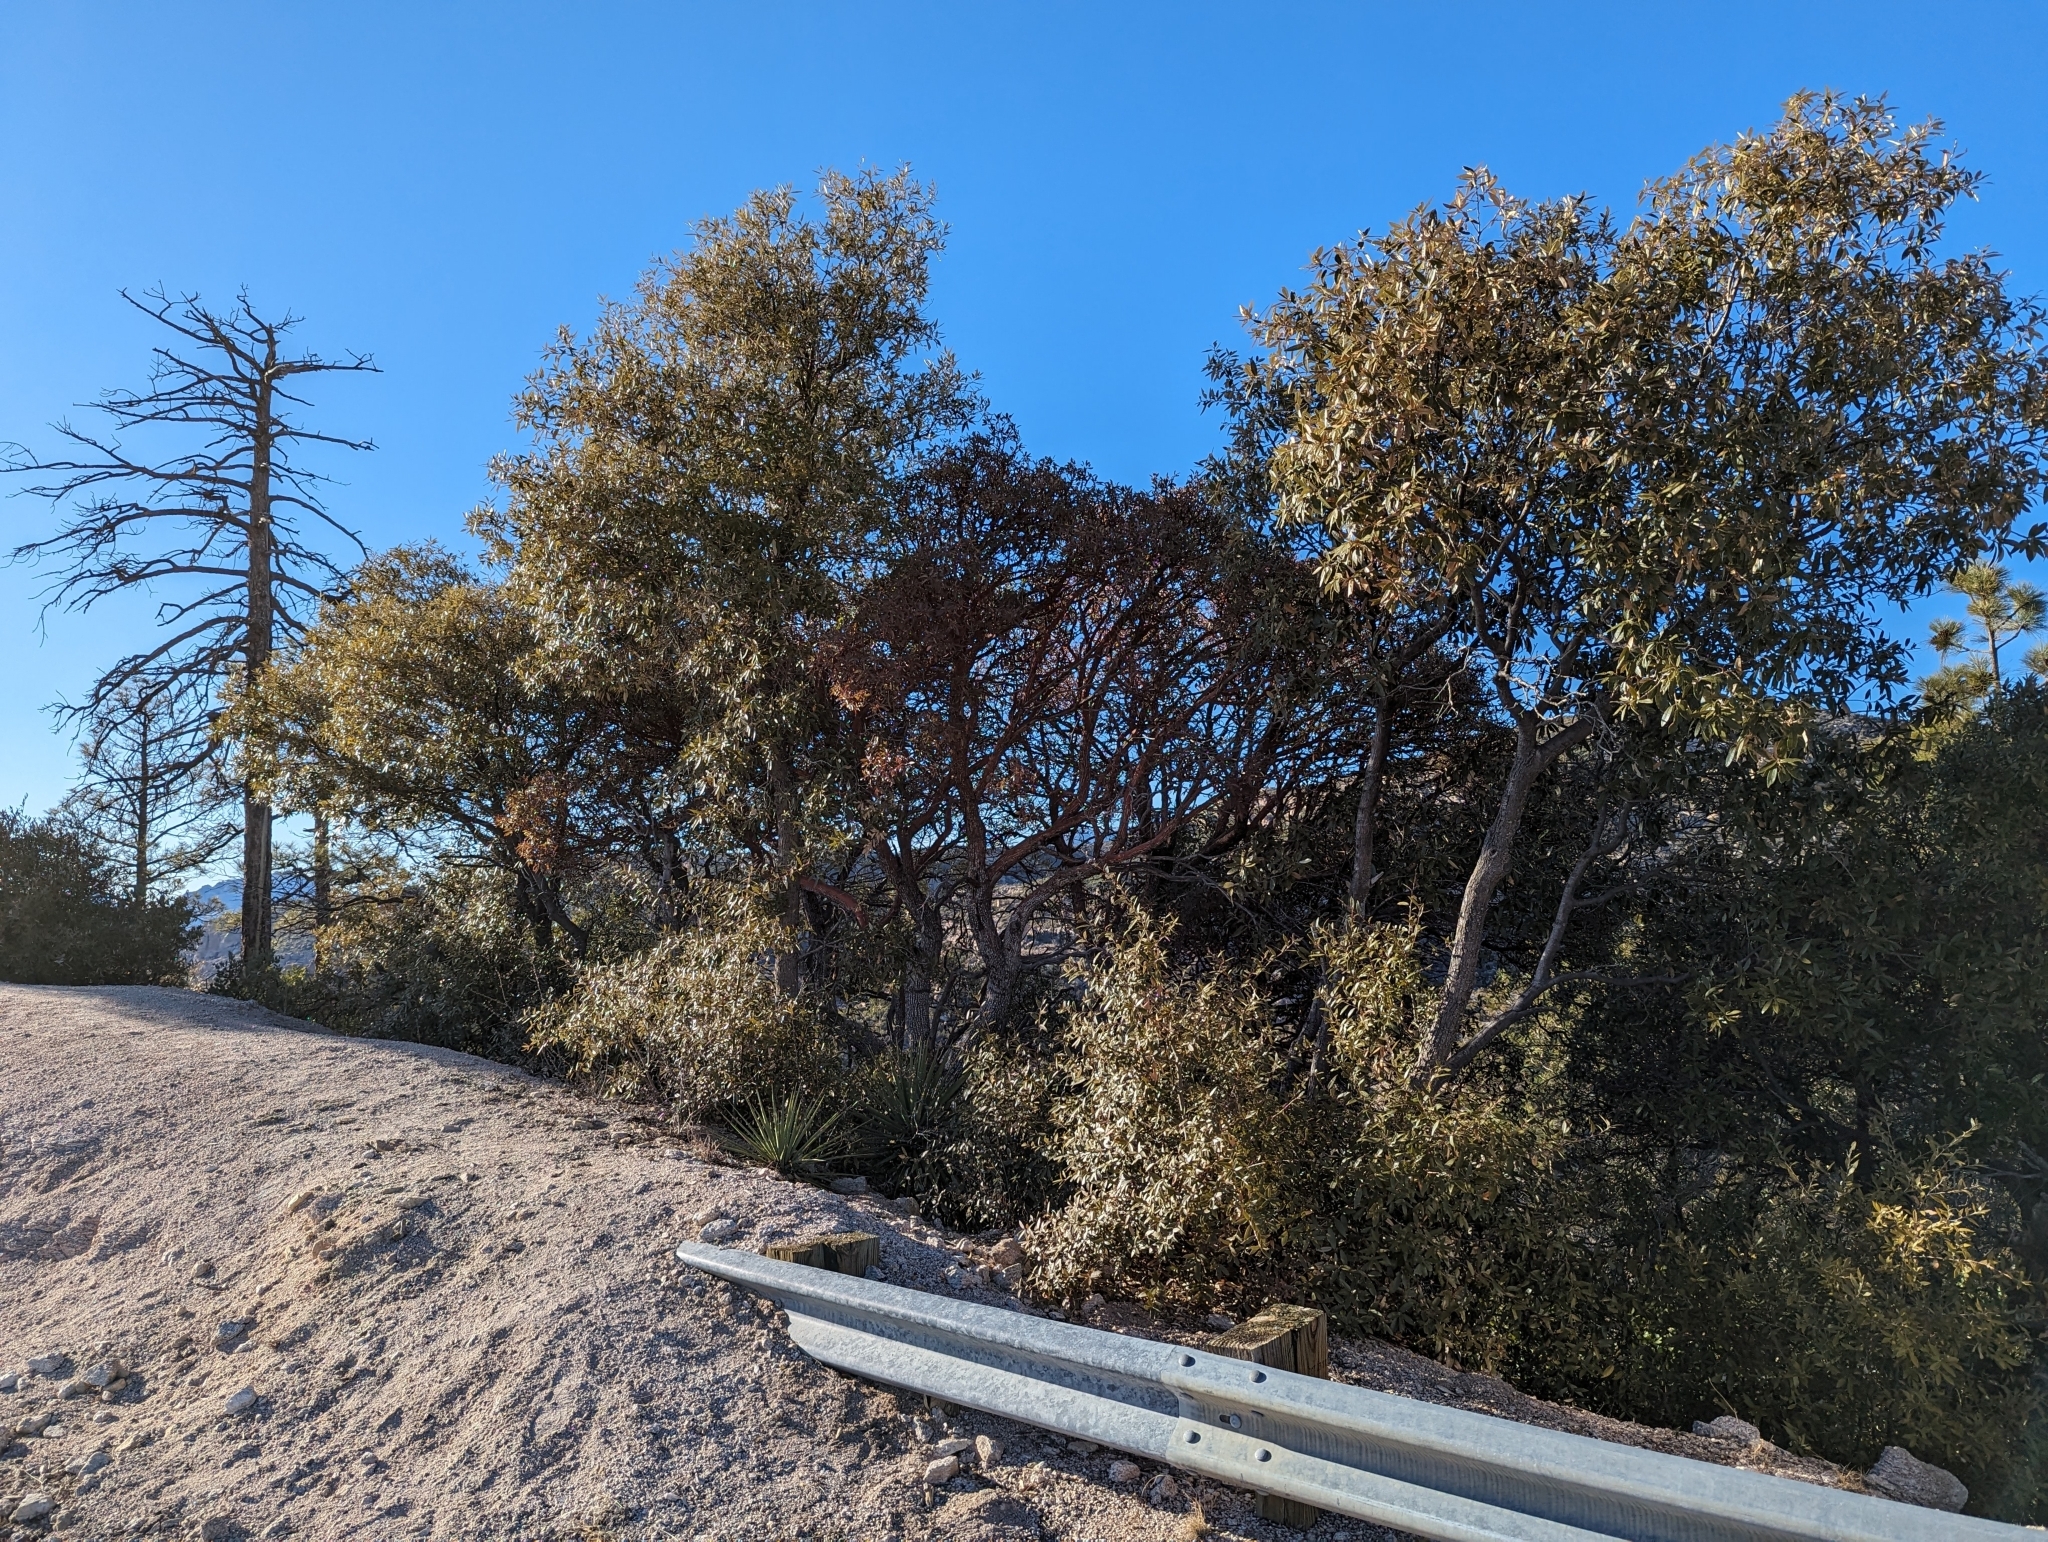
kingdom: Plantae
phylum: Tracheophyta
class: Magnoliopsida
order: Ericales
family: Ericaceae
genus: Arbutus
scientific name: Arbutus arizonica
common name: Arizona madrone
